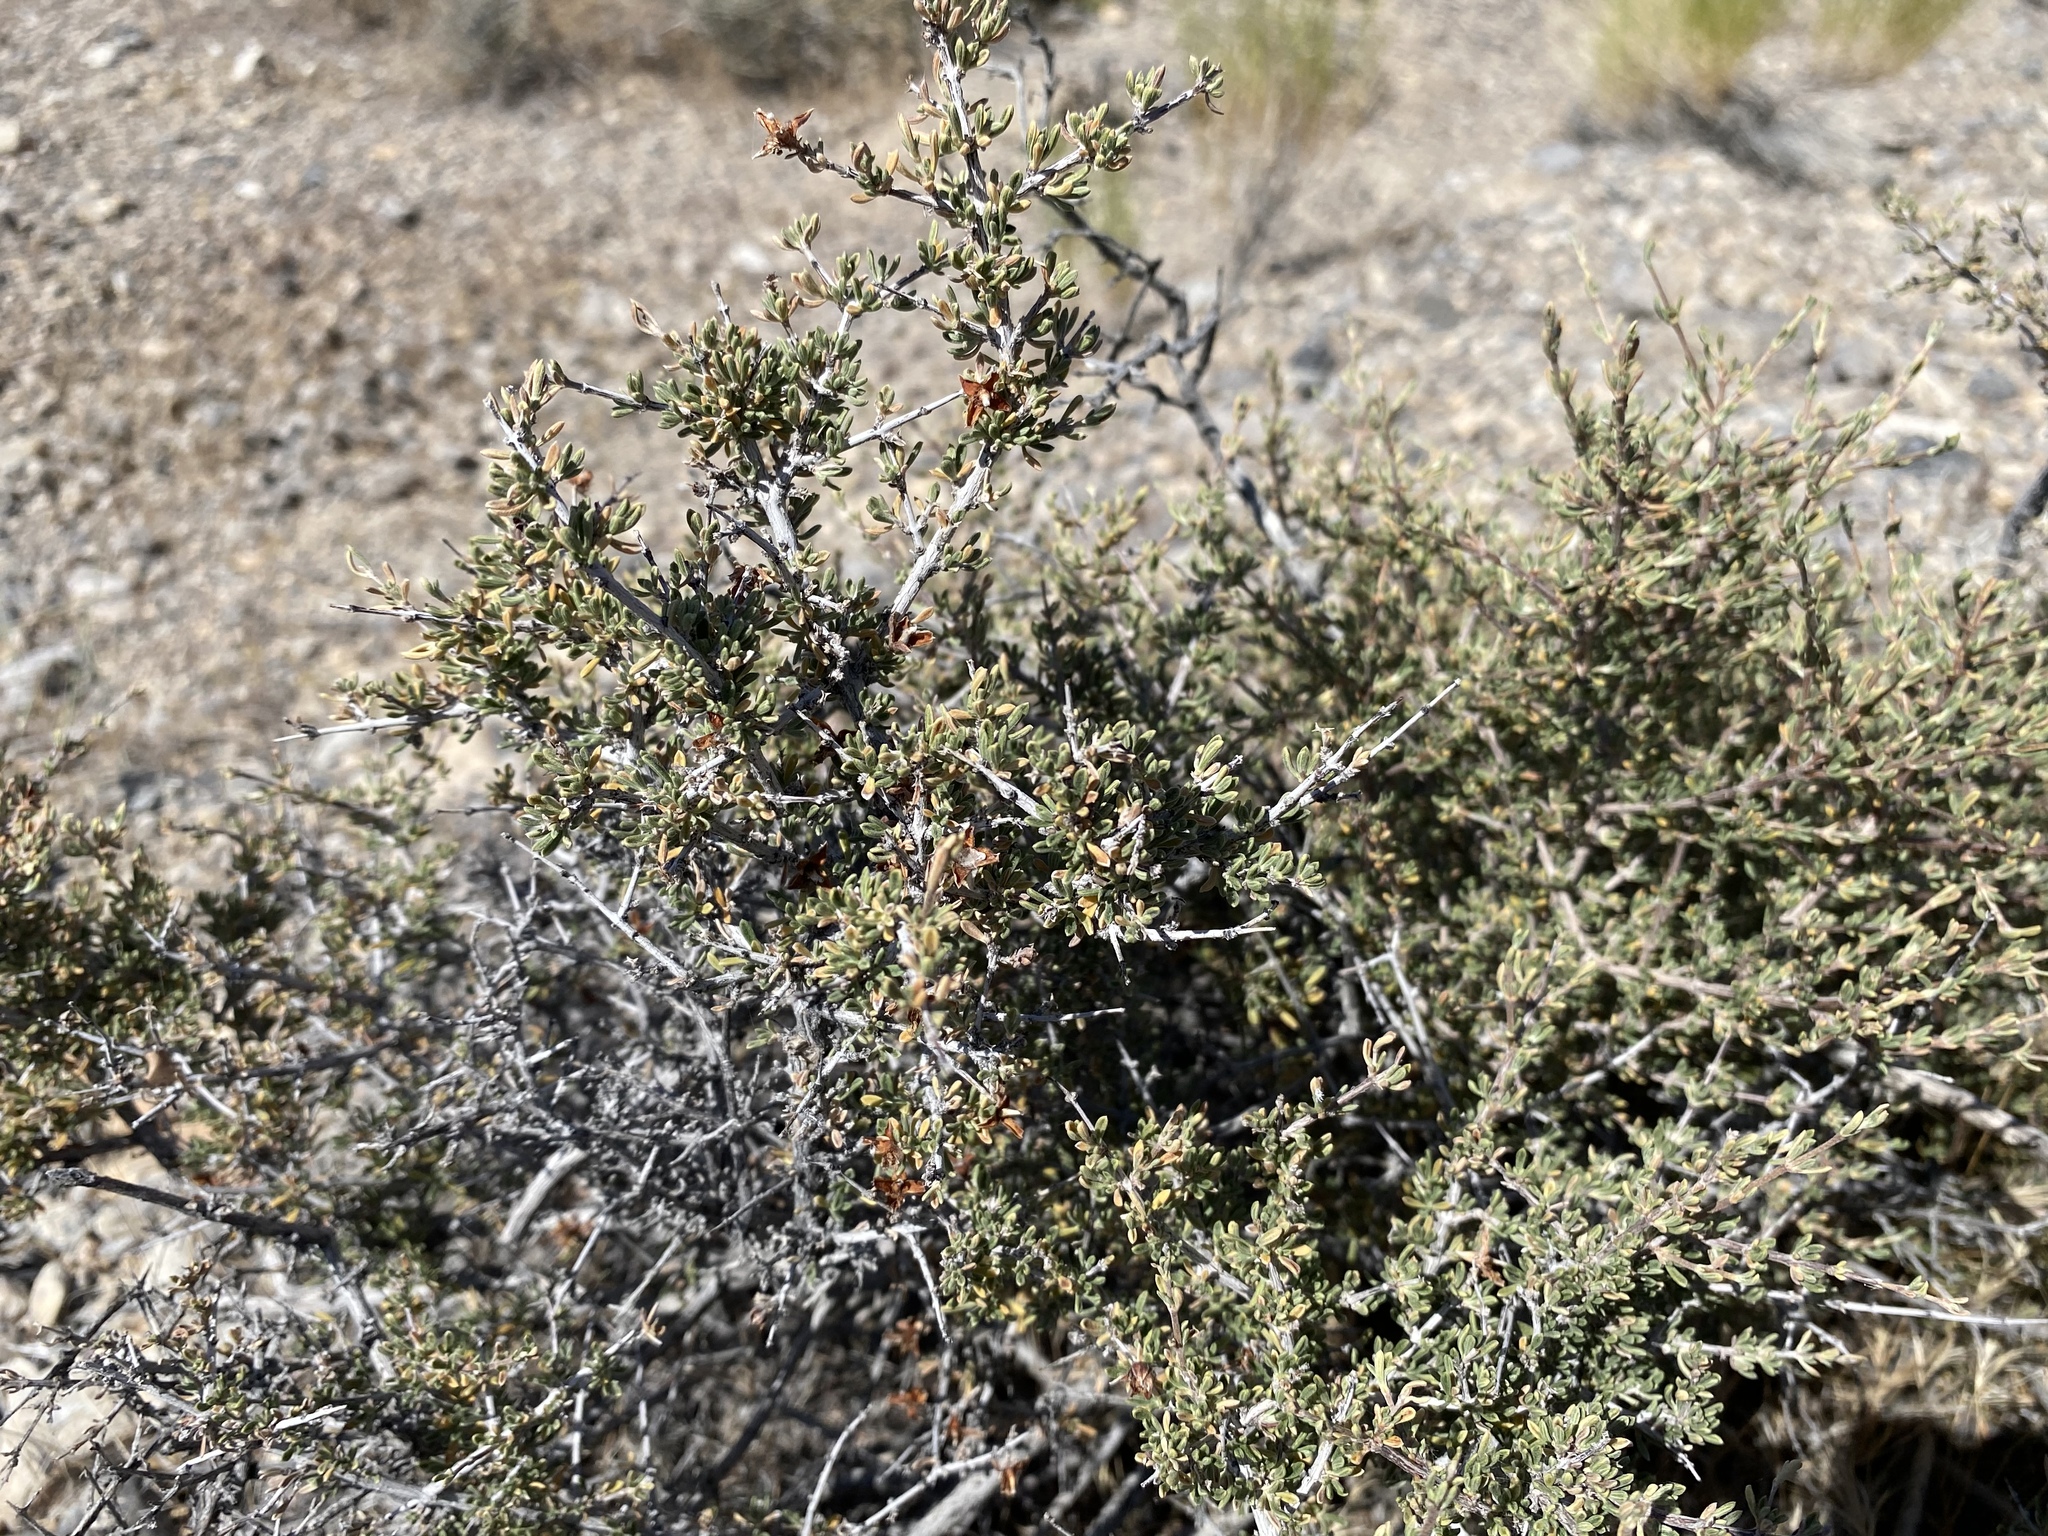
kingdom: Plantae
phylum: Tracheophyta
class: Magnoliopsida
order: Rosales
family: Rosaceae
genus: Coleogyne
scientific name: Coleogyne ramosissima
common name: Blackbrush
